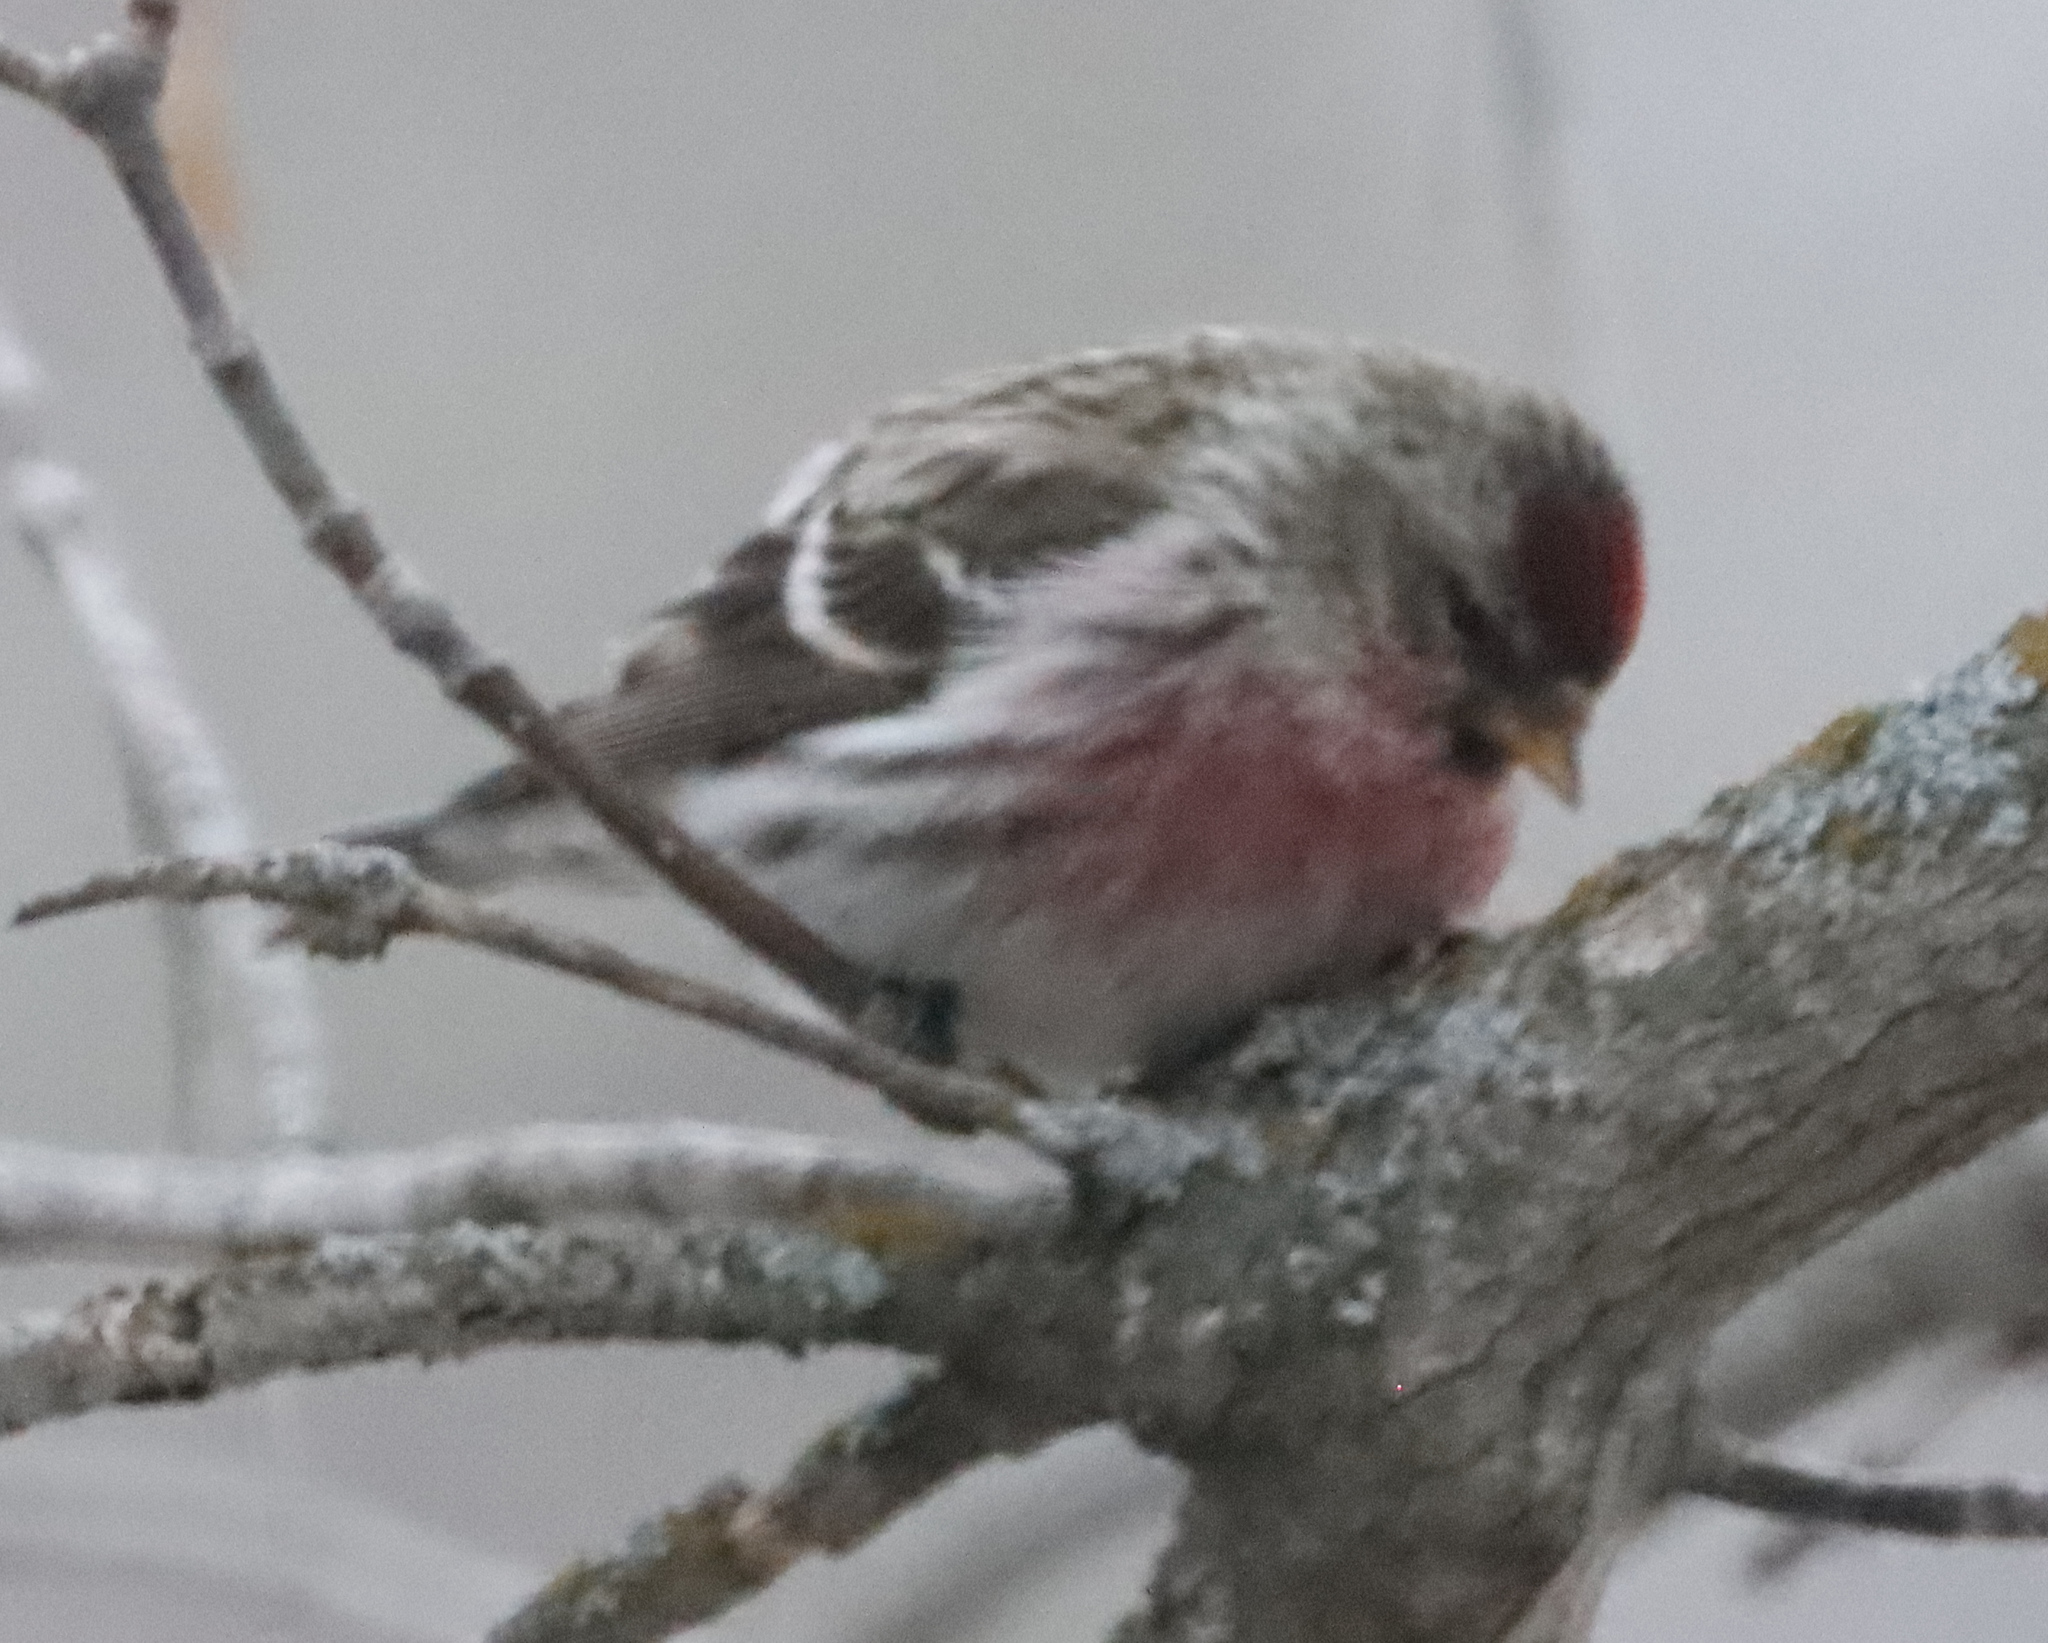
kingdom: Animalia
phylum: Chordata
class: Aves
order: Passeriformes
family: Fringillidae
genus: Acanthis
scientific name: Acanthis flammea
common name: Common redpoll
